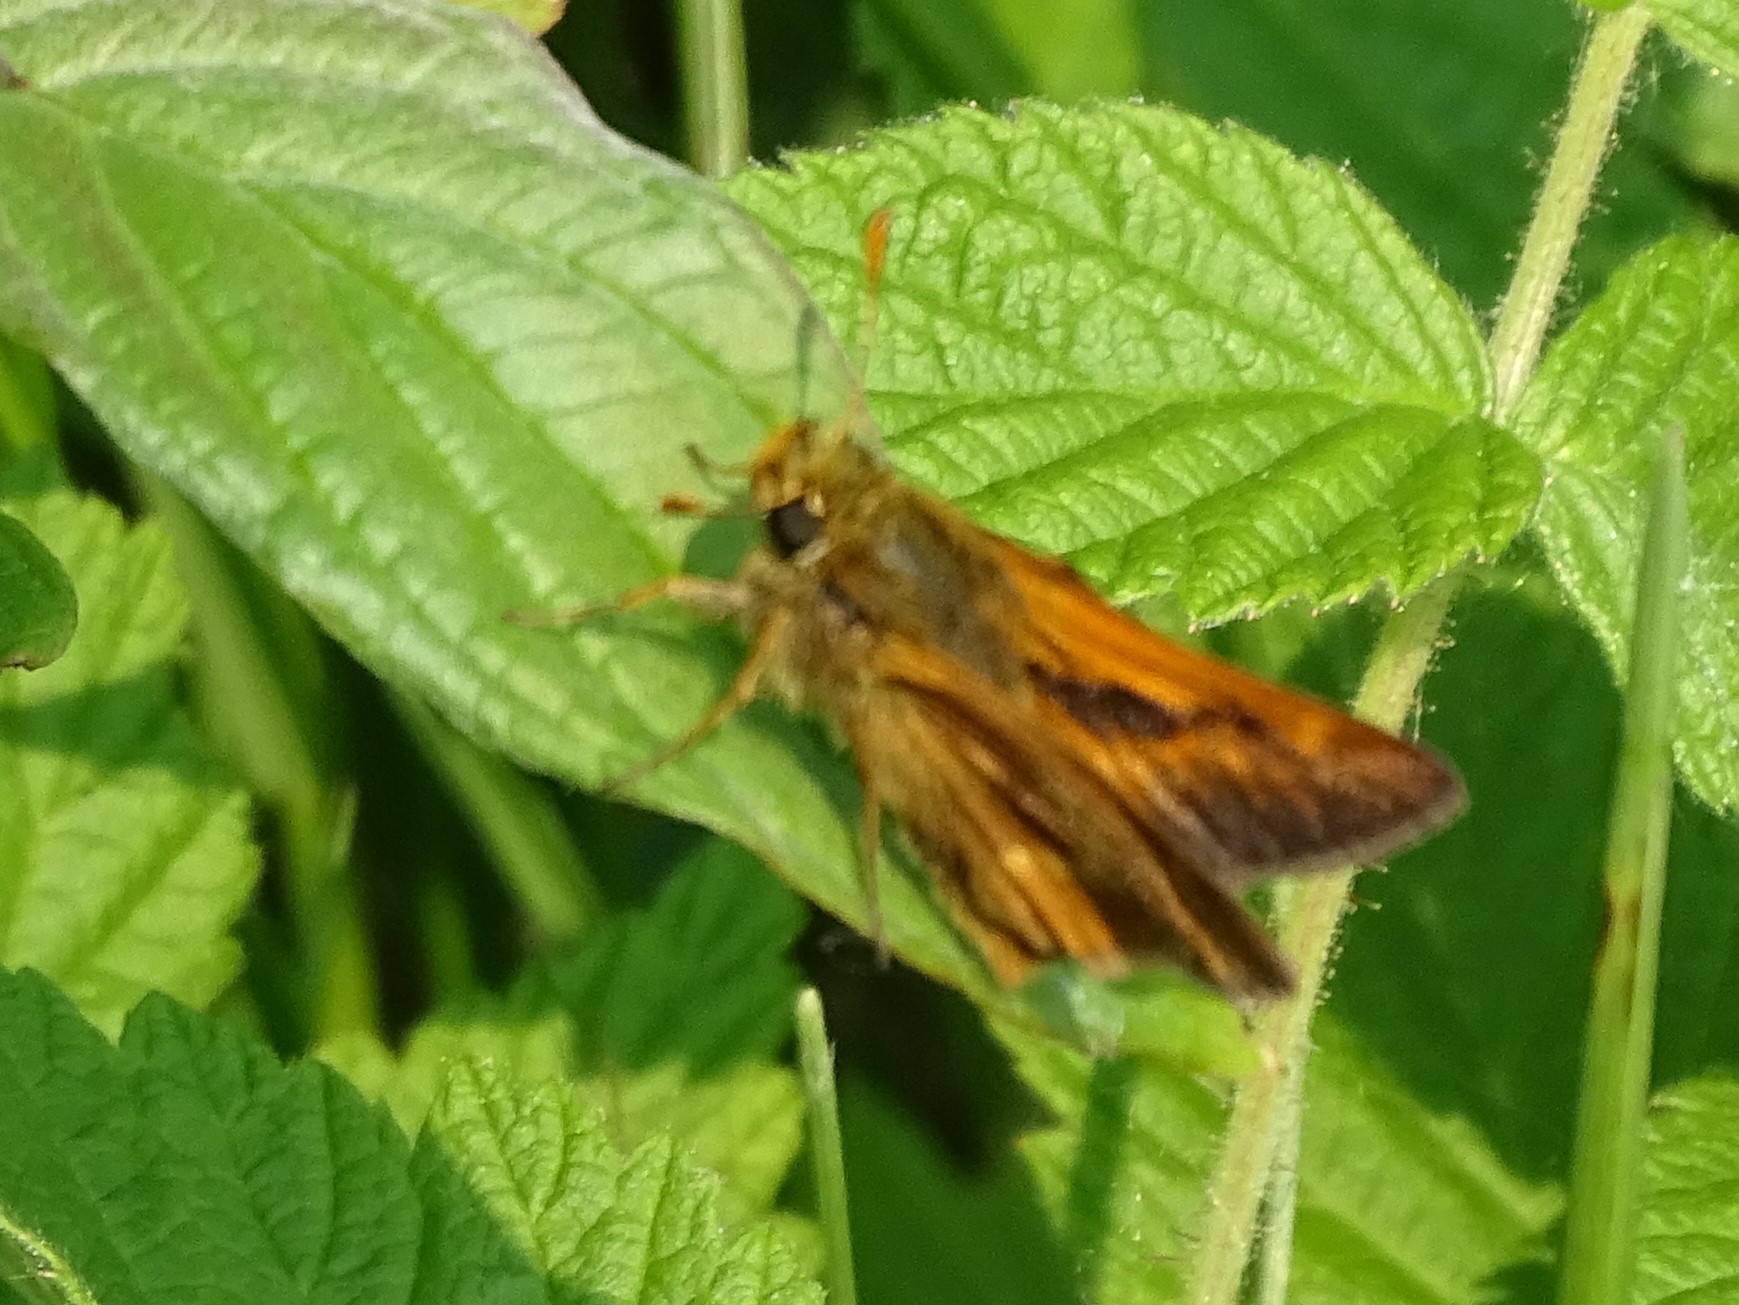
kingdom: Animalia
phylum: Arthropoda
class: Insecta
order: Lepidoptera
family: Hesperiidae
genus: Polites
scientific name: Polites mystic
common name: Long dash
